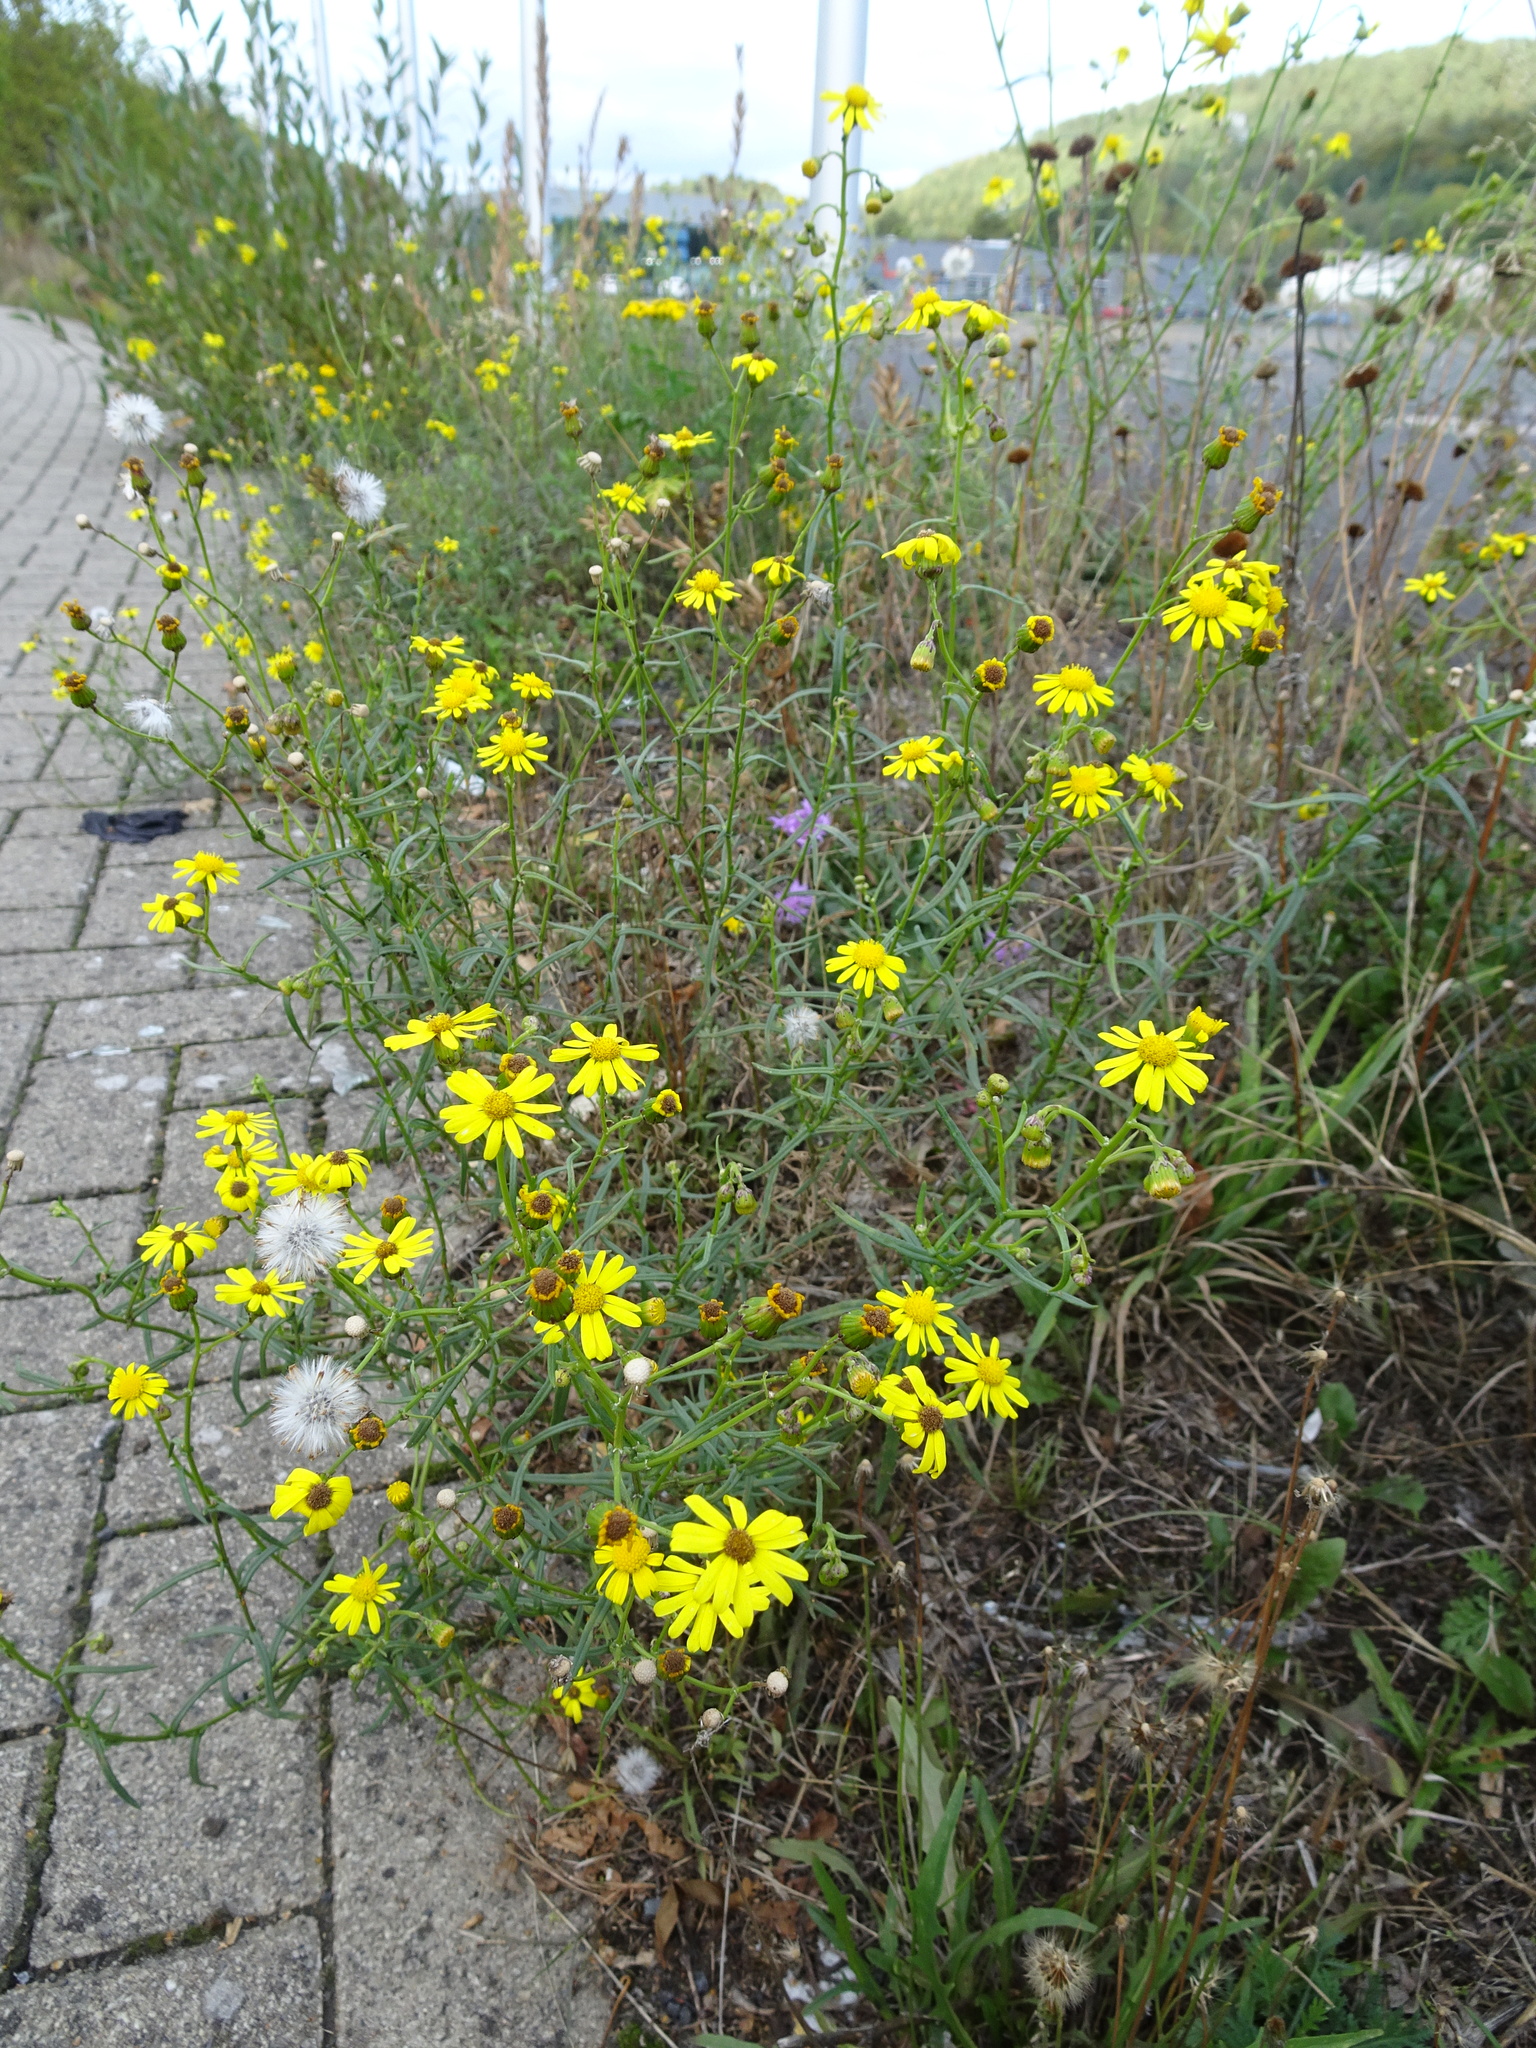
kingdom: Plantae
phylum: Tracheophyta
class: Magnoliopsida
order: Asterales
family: Asteraceae
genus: Senecio
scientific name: Senecio inaequidens
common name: Narrow-leaved ragwort
